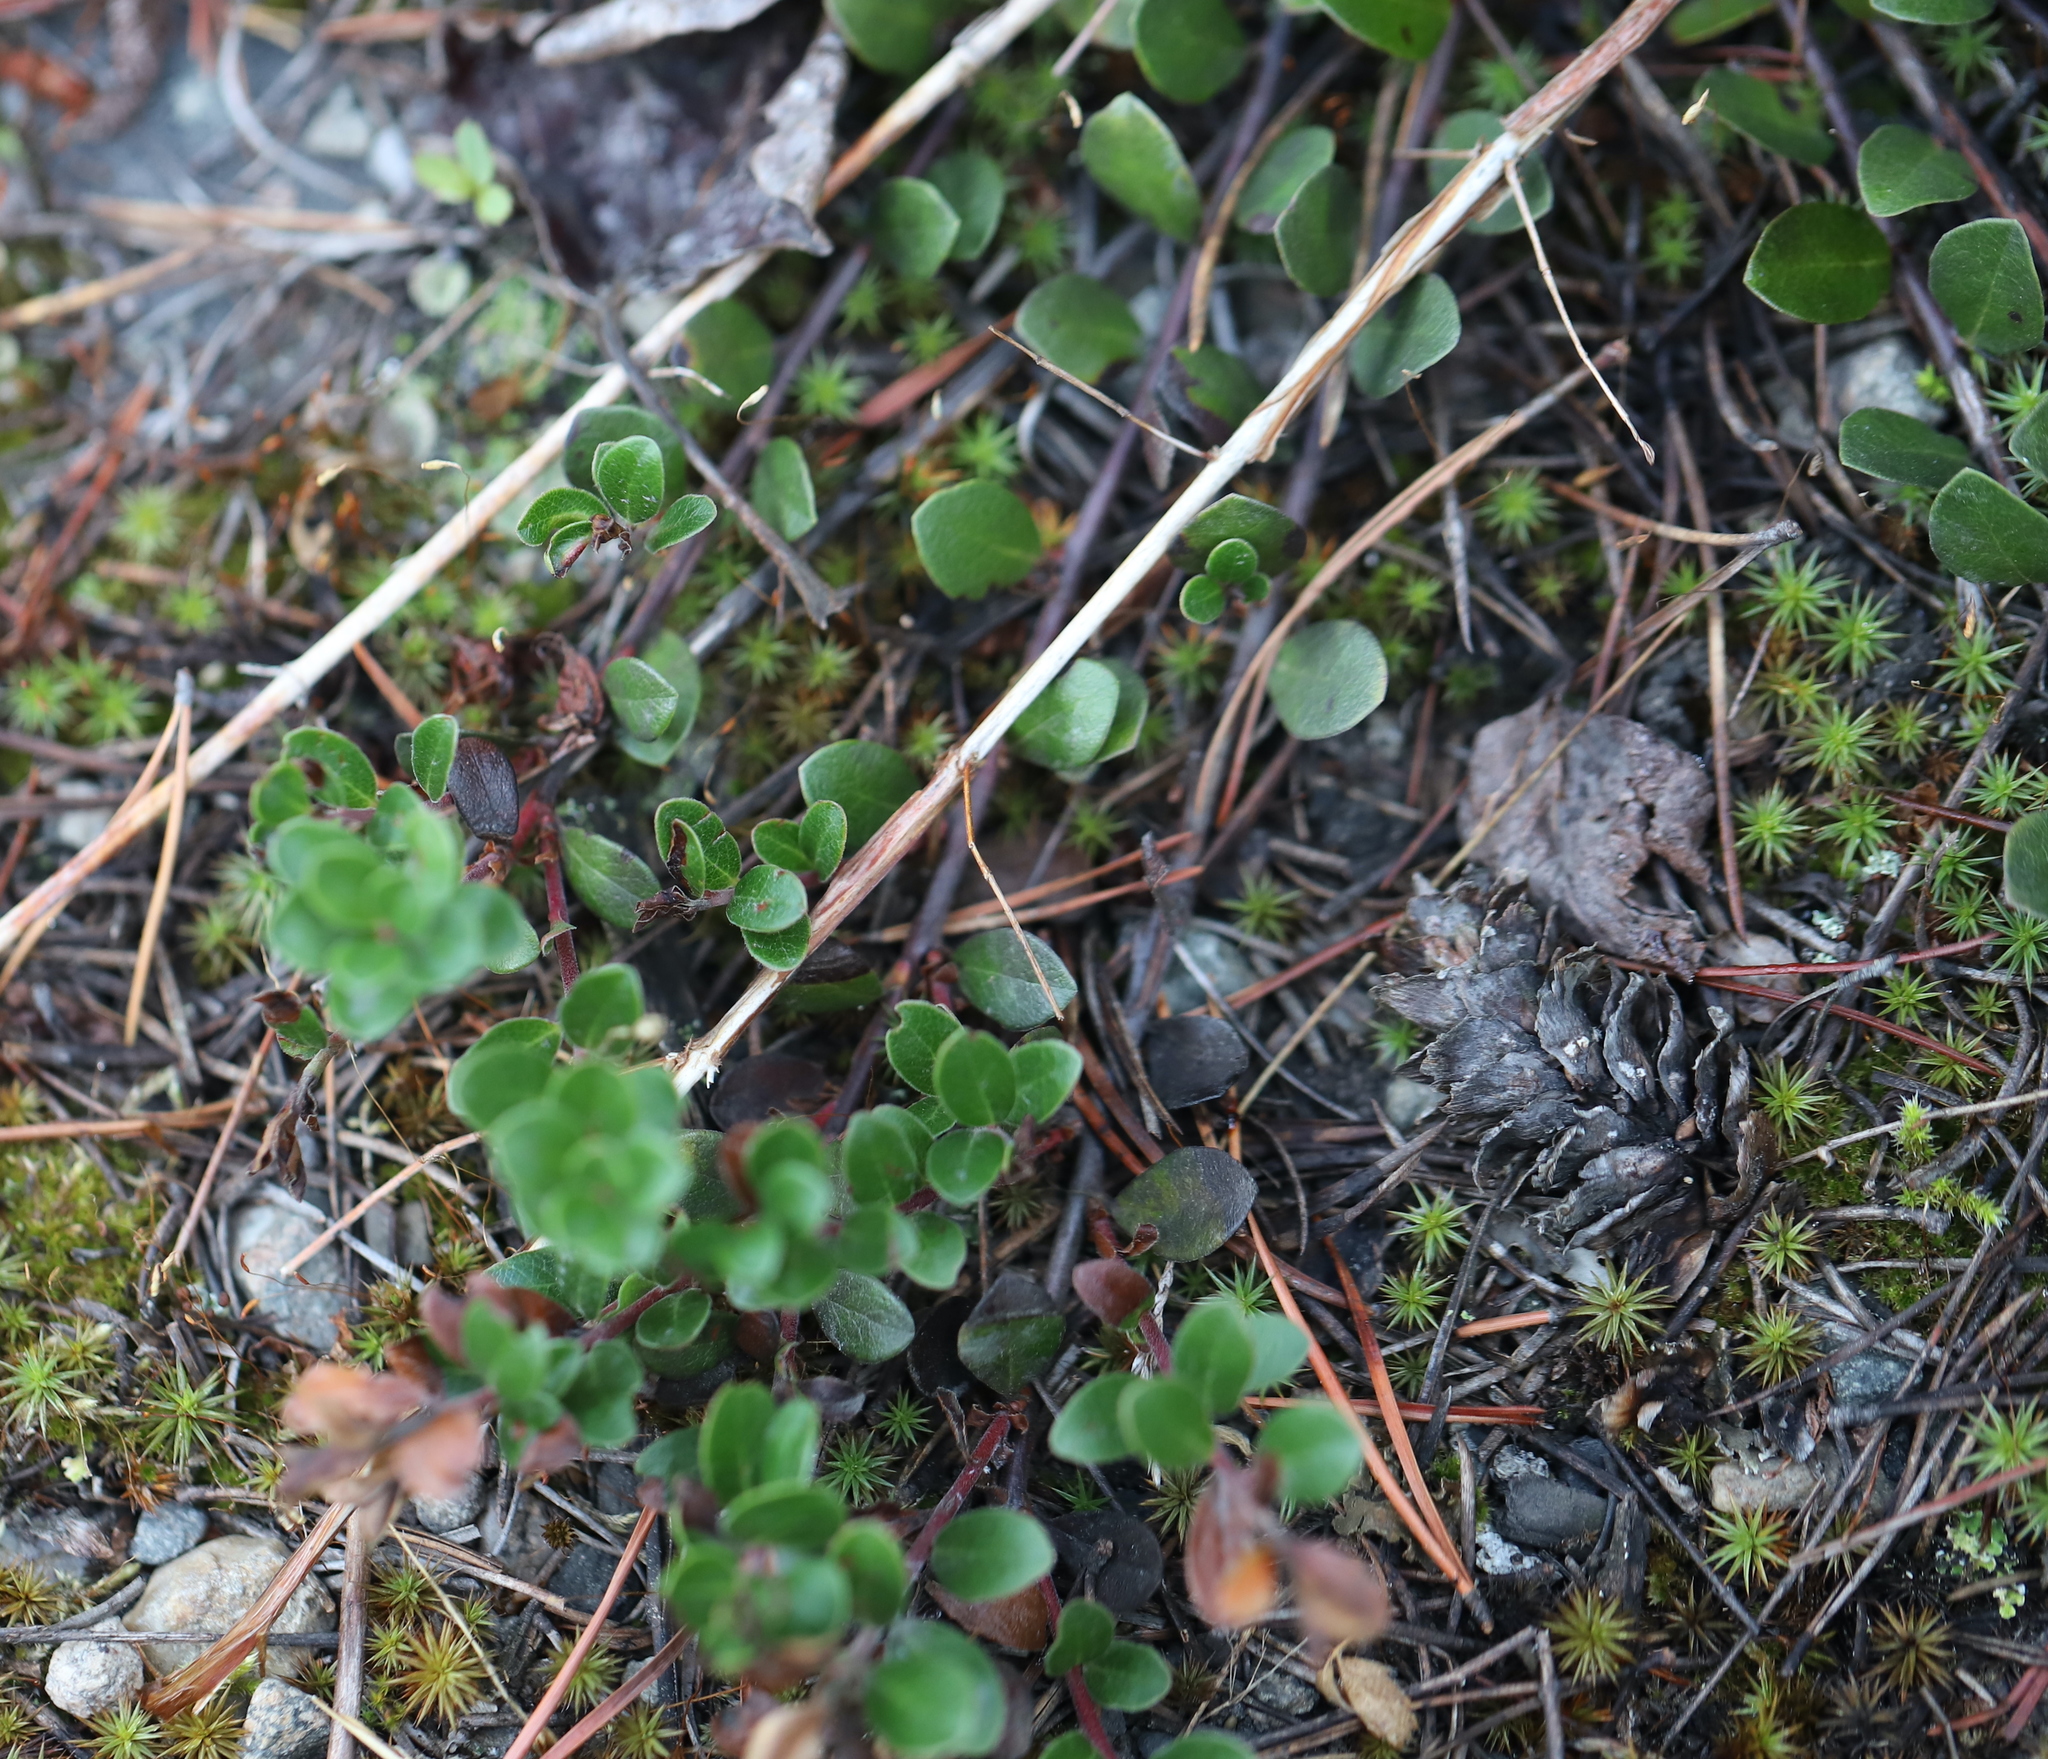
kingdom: Plantae
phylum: Tracheophyta
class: Magnoliopsida
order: Ericales
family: Ericaceae
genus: Arctostaphylos
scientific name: Arctostaphylos uva-ursi
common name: Bearberry
